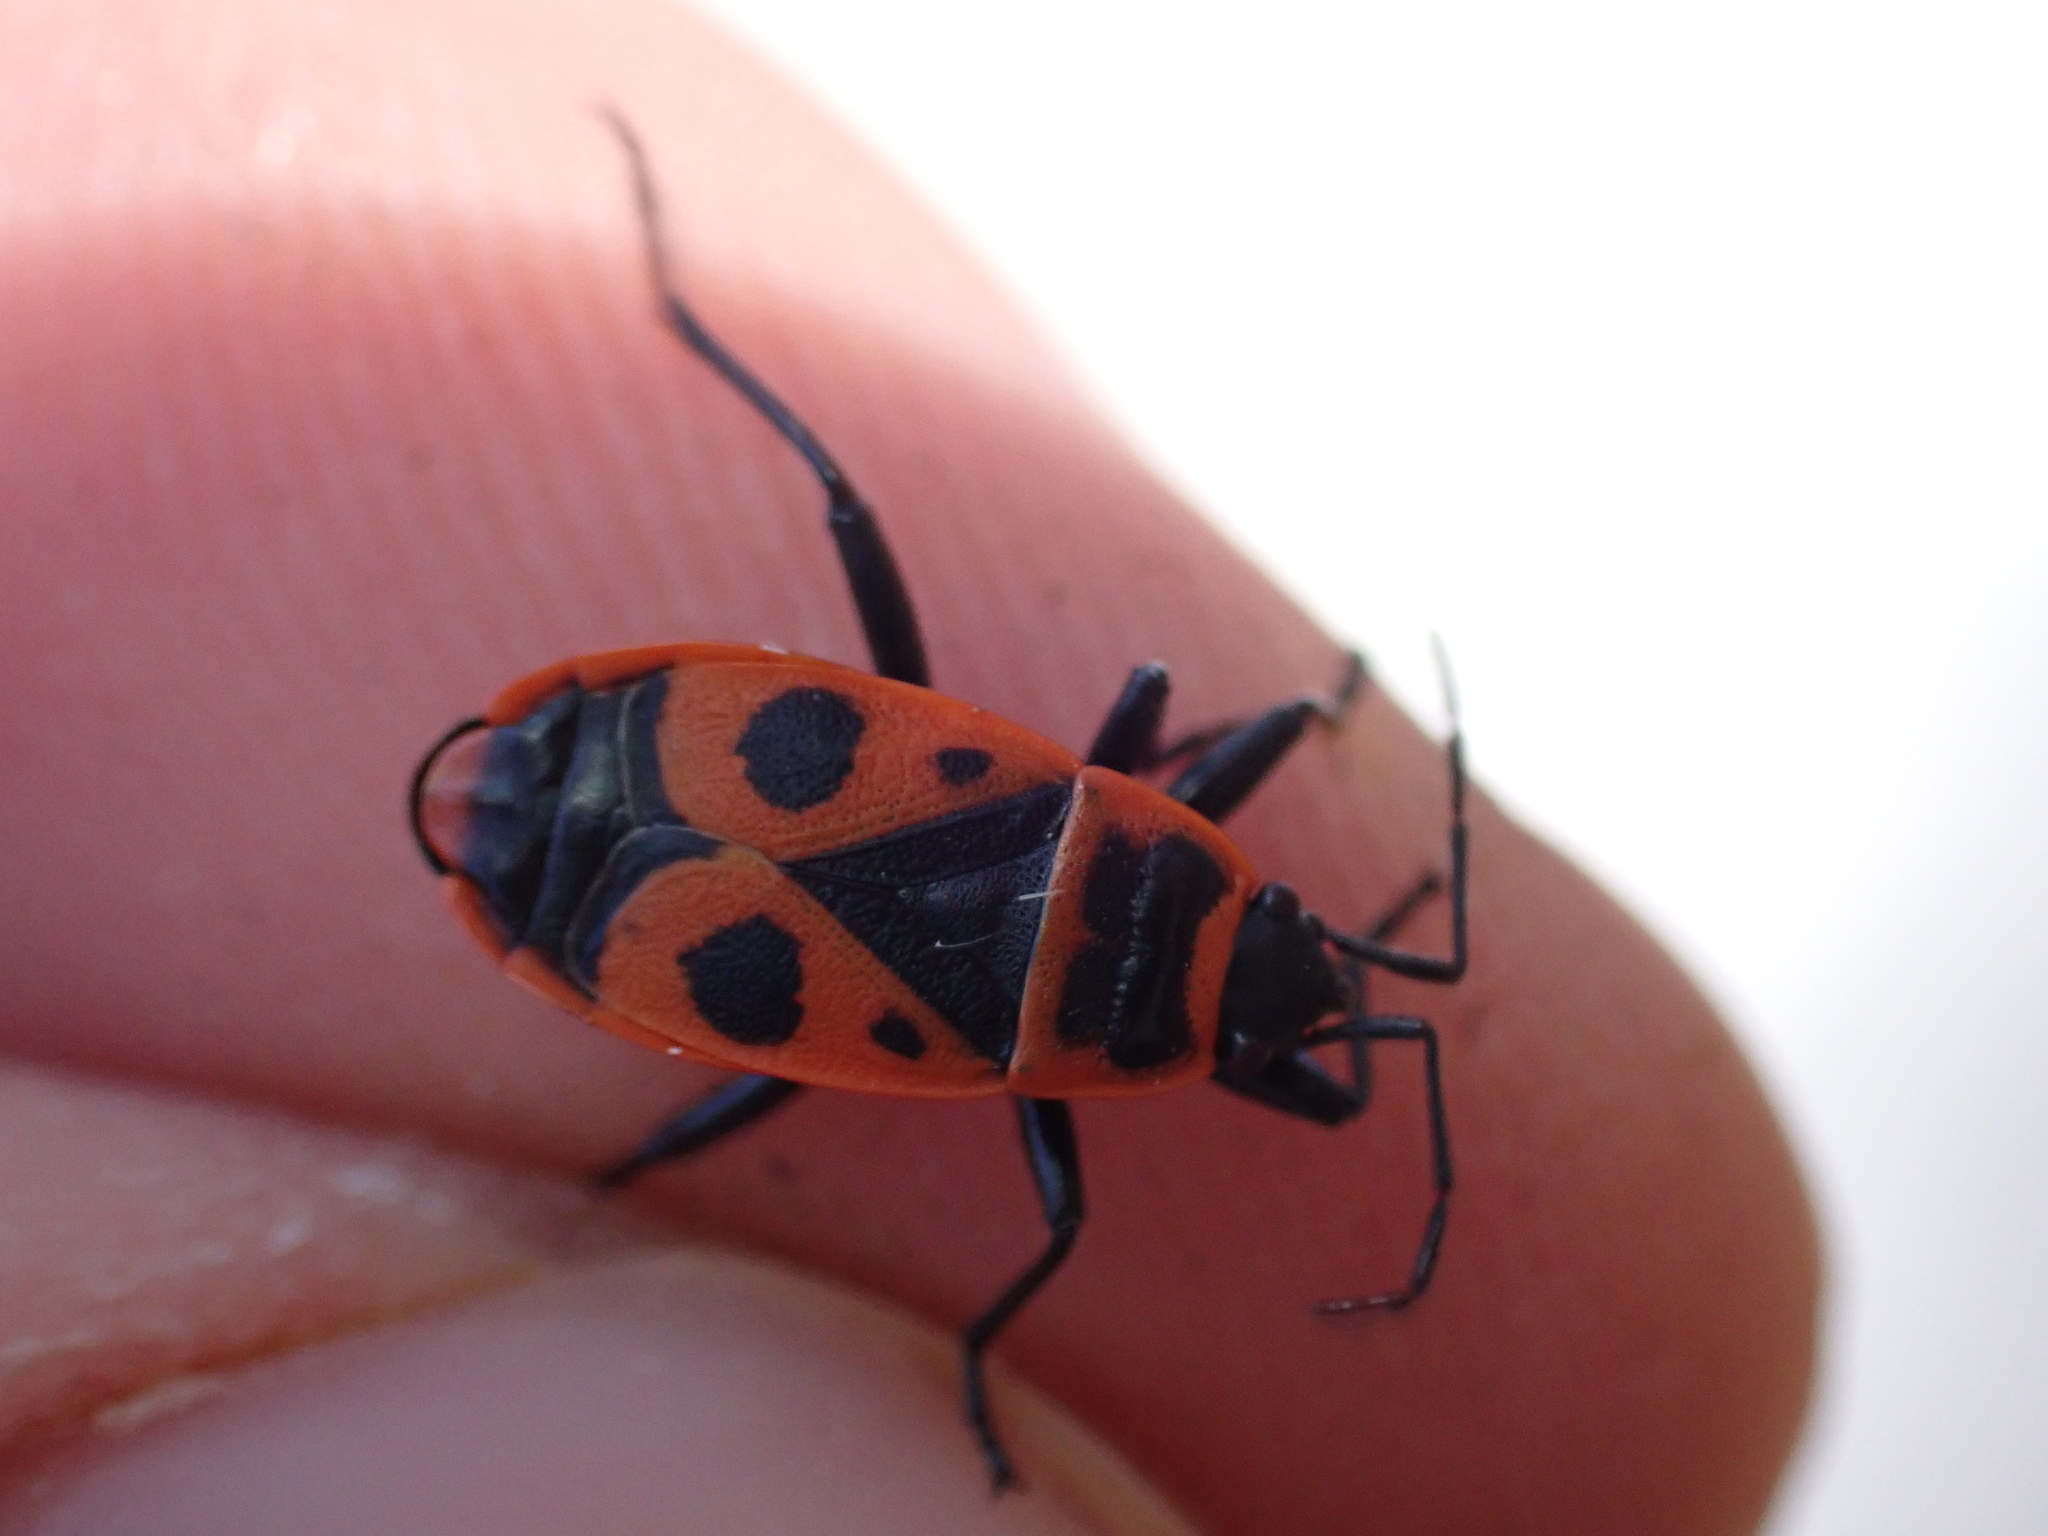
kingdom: Animalia
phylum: Arthropoda
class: Insecta
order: Hemiptera
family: Pyrrhocoridae
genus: Pyrrhocoris
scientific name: Pyrrhocoris apterus
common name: Firebug
